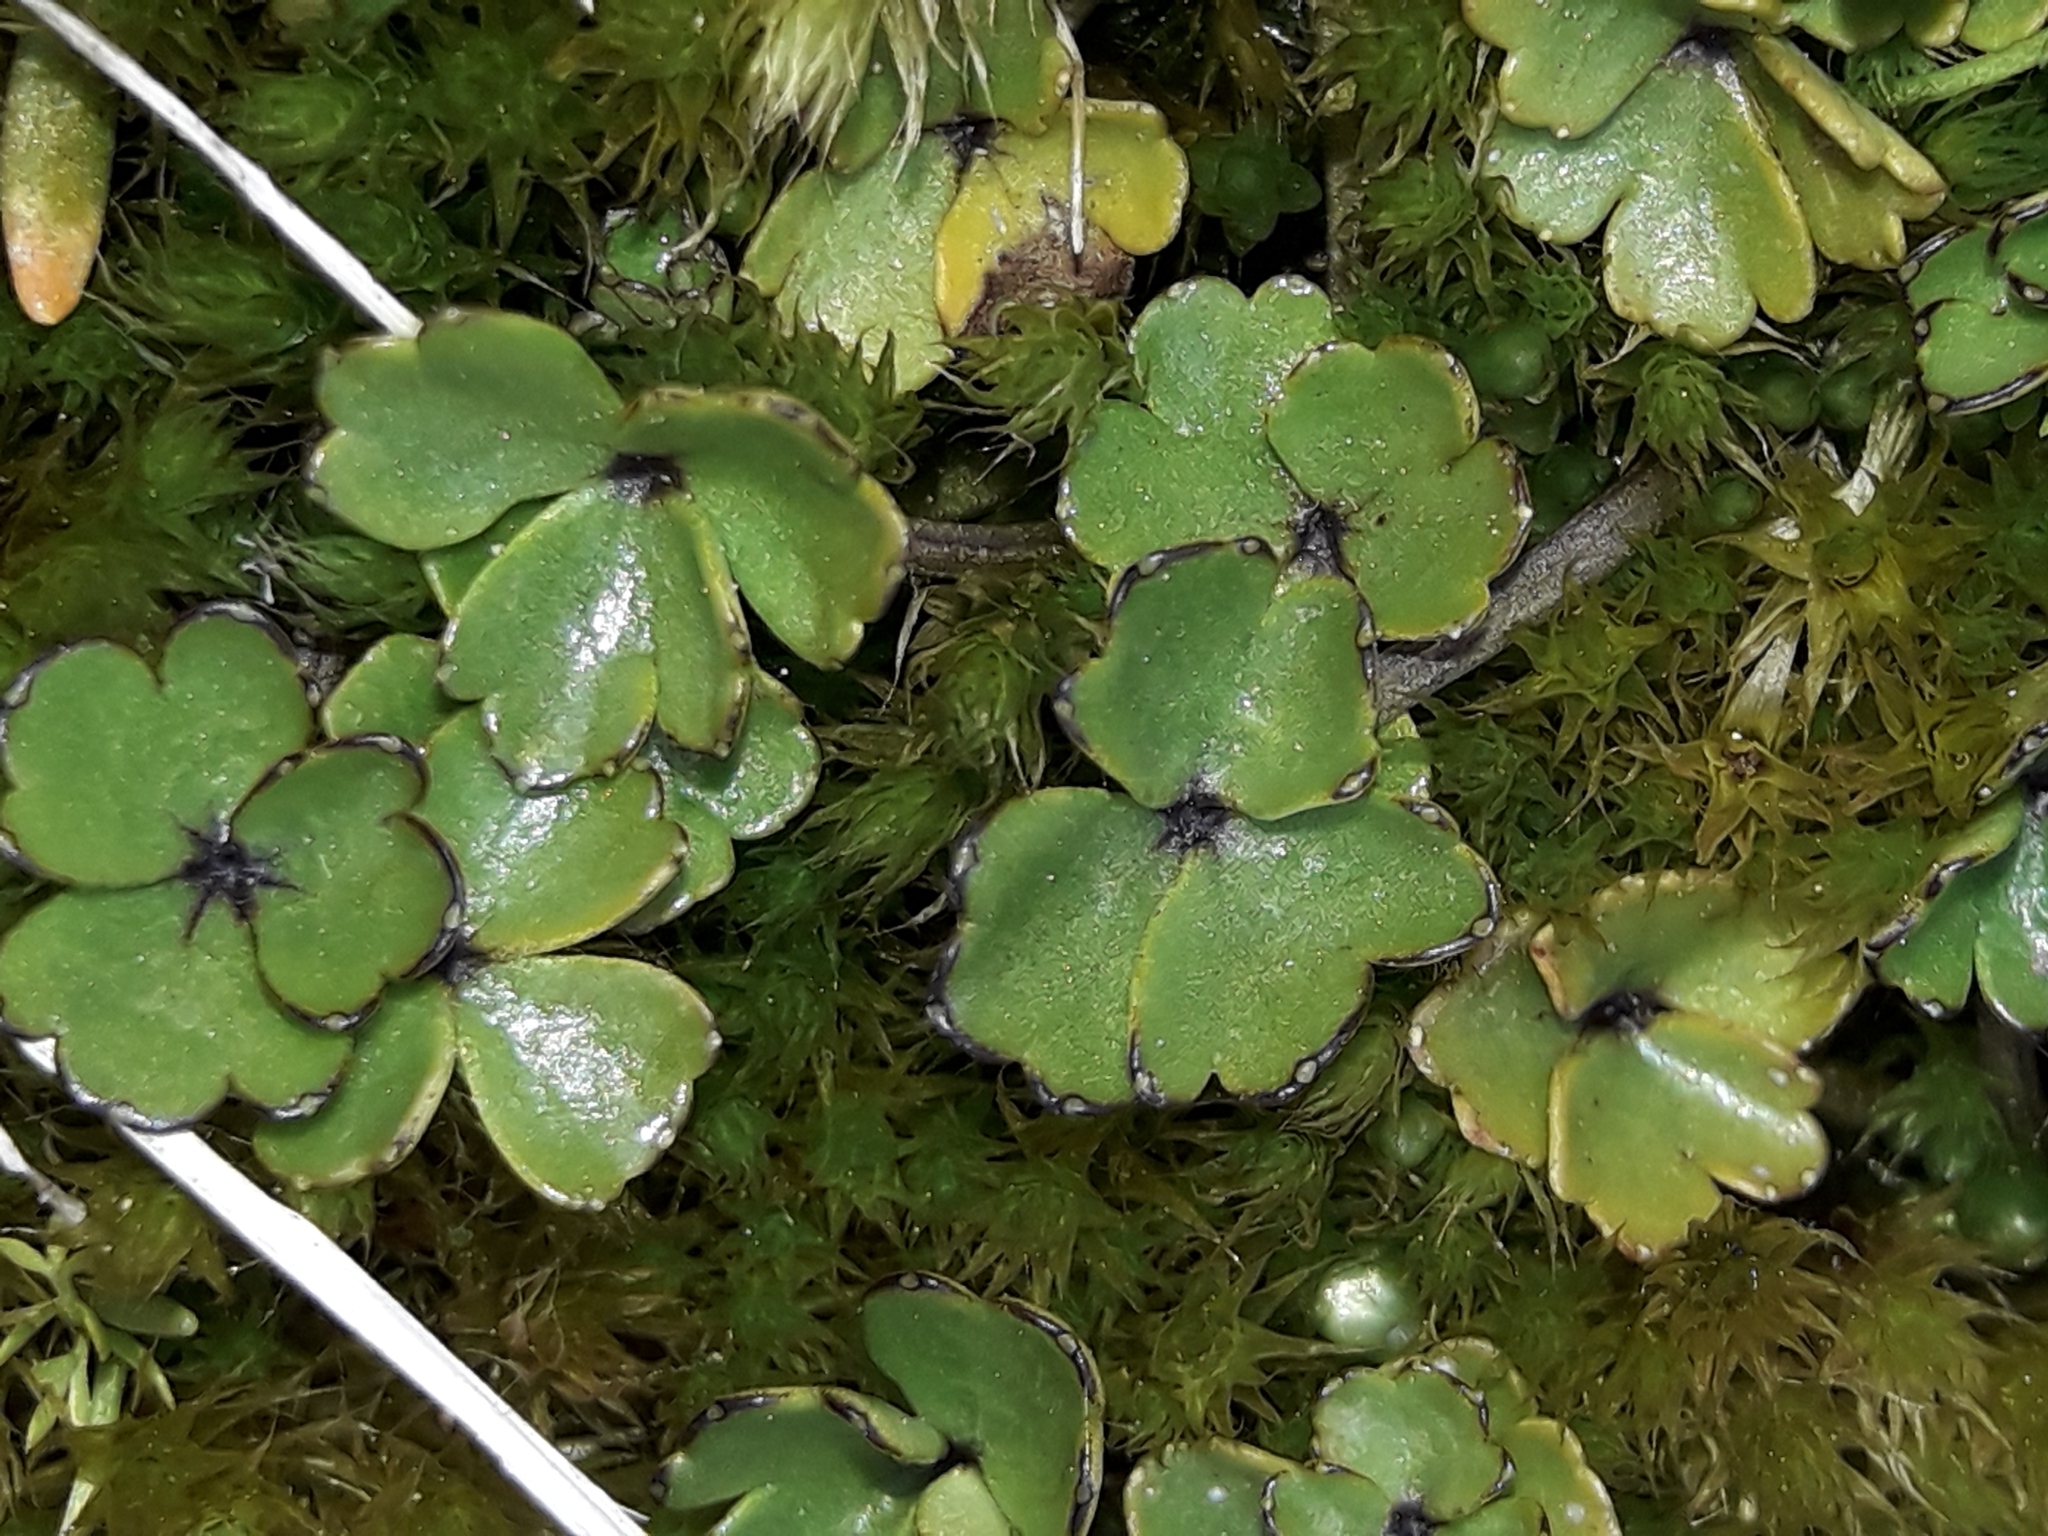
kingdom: Plantae
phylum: Tracheophyta
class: Magnoliopsida
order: Apiales
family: Apiaceae
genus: Azorella
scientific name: Azorella pallida
